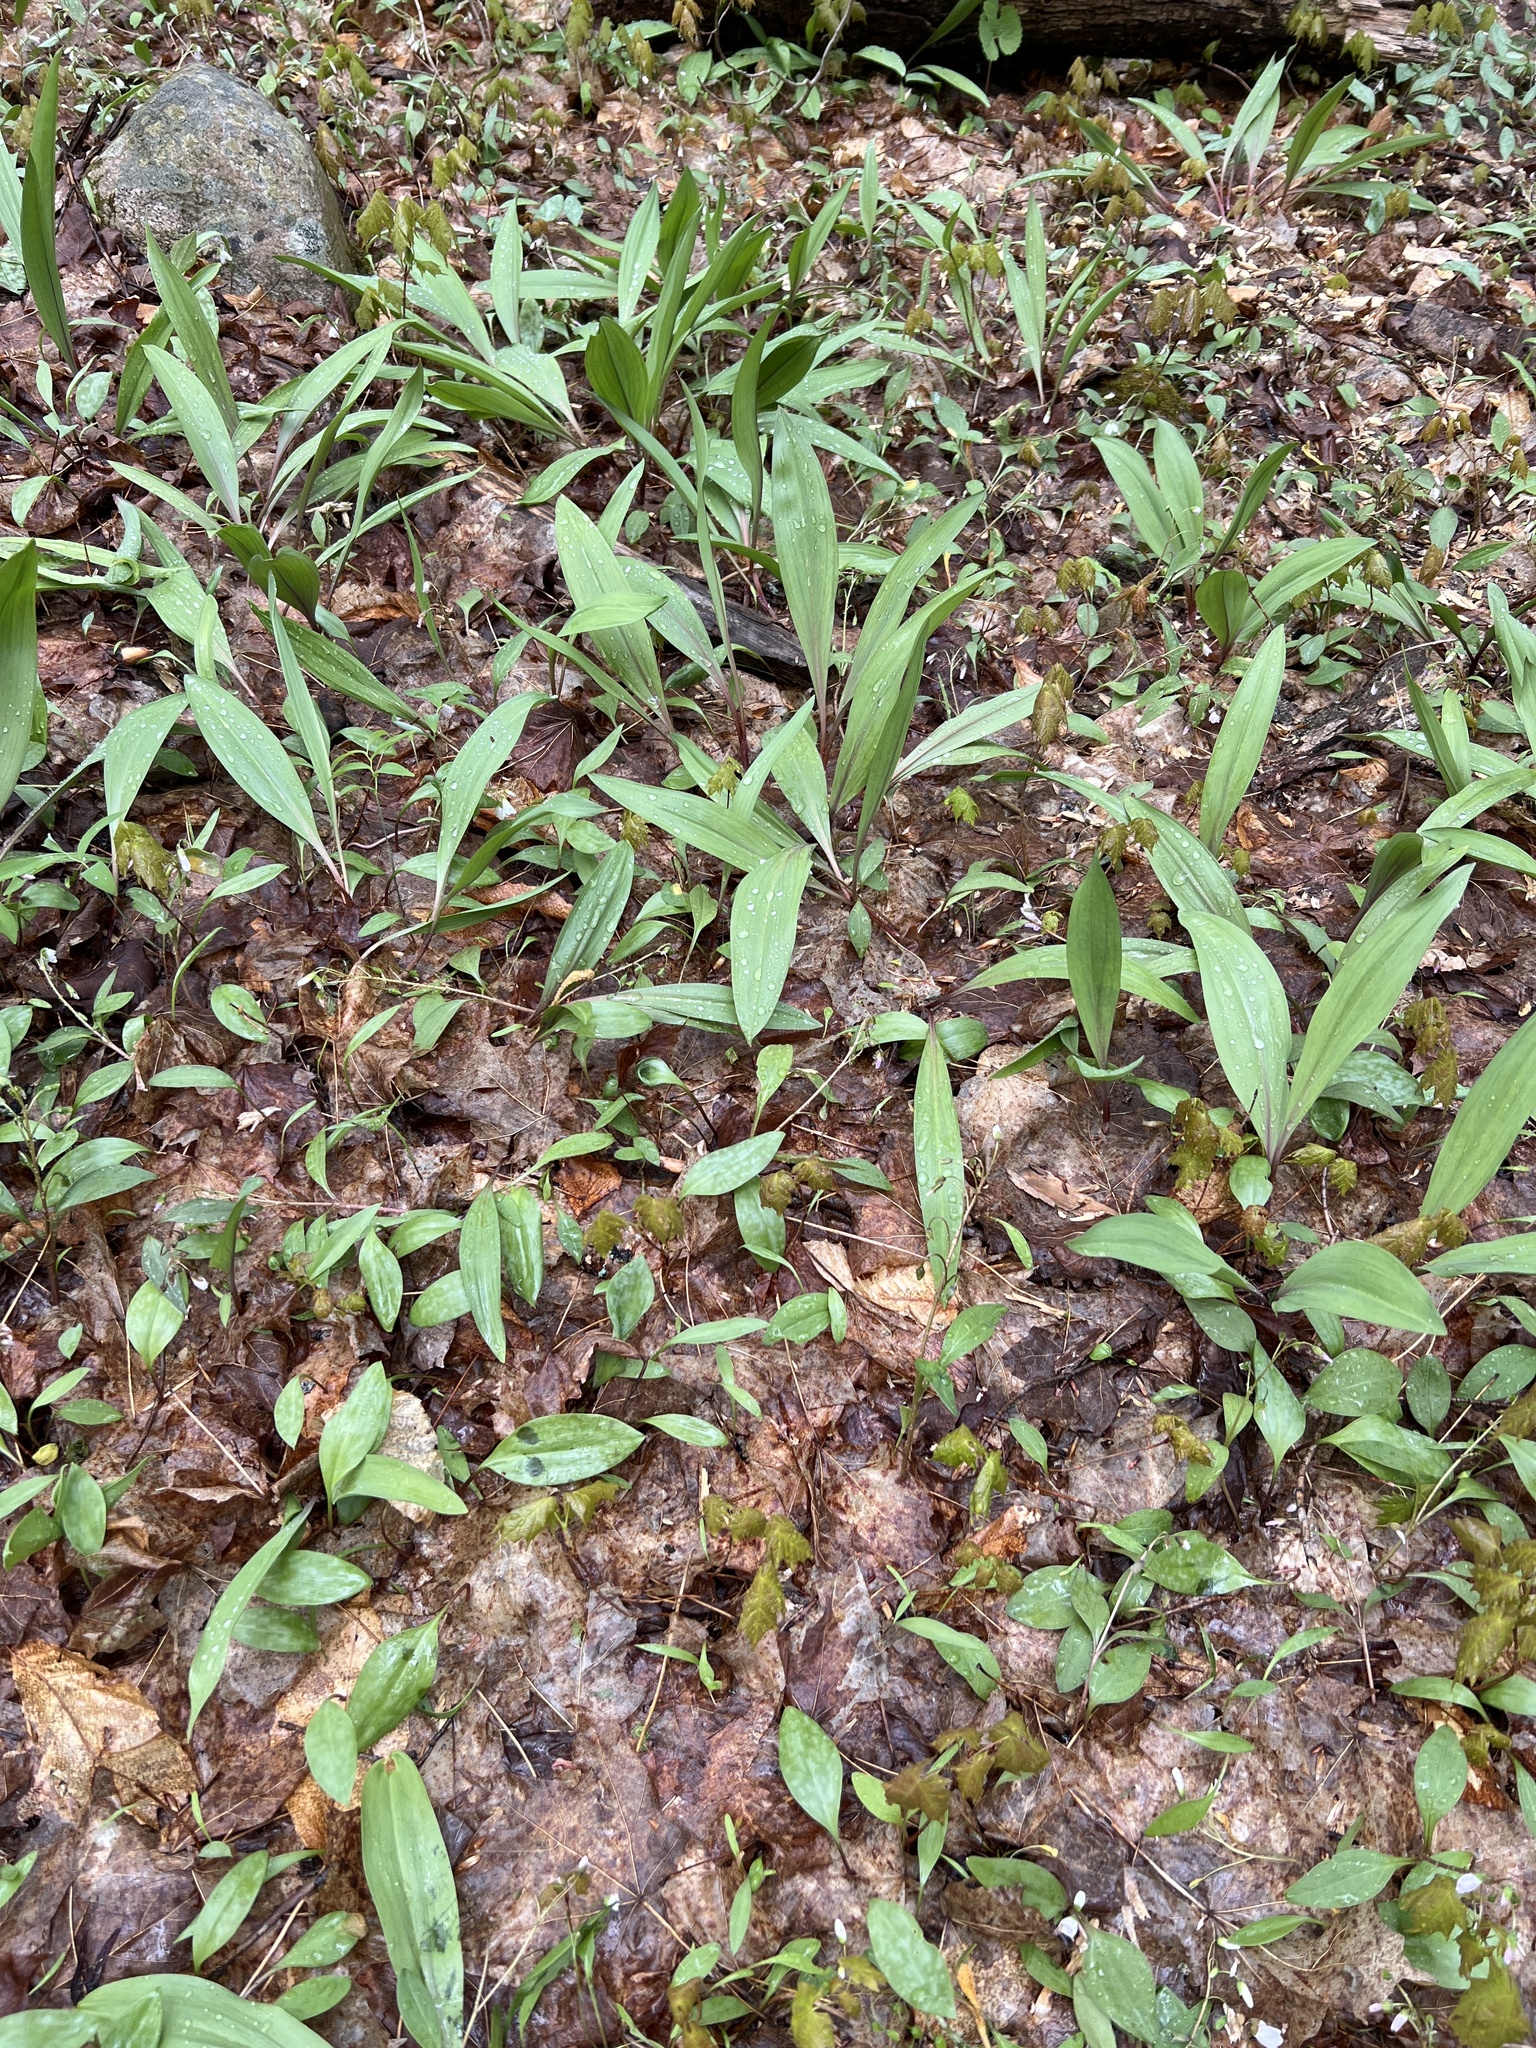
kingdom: Plantae
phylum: Tracheophyta
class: Liliopsida
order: Asparagales
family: Amaryllidaceae
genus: Allium
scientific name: Allium tricoccum
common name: Ramp
